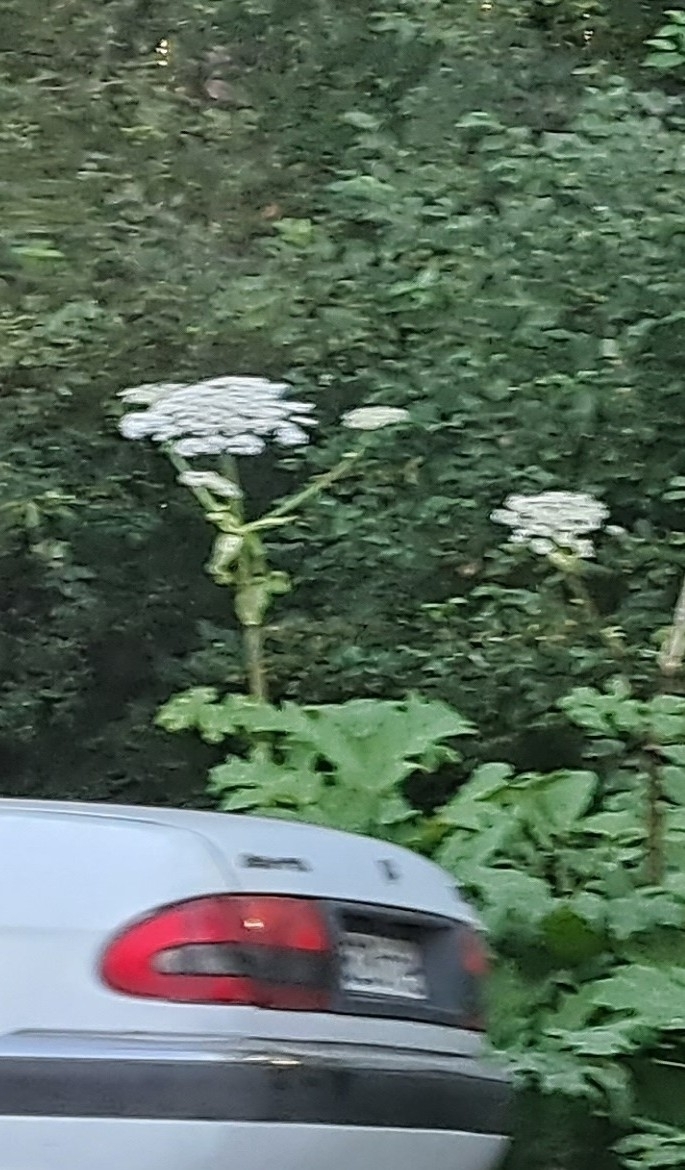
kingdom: Plantae
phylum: Tracheophyta
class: Magnoliopsida
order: Apiales
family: Apiaceae
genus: Heracleum
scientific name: Heracleum sosnowskyi
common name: Sosnowsky's hogweed
